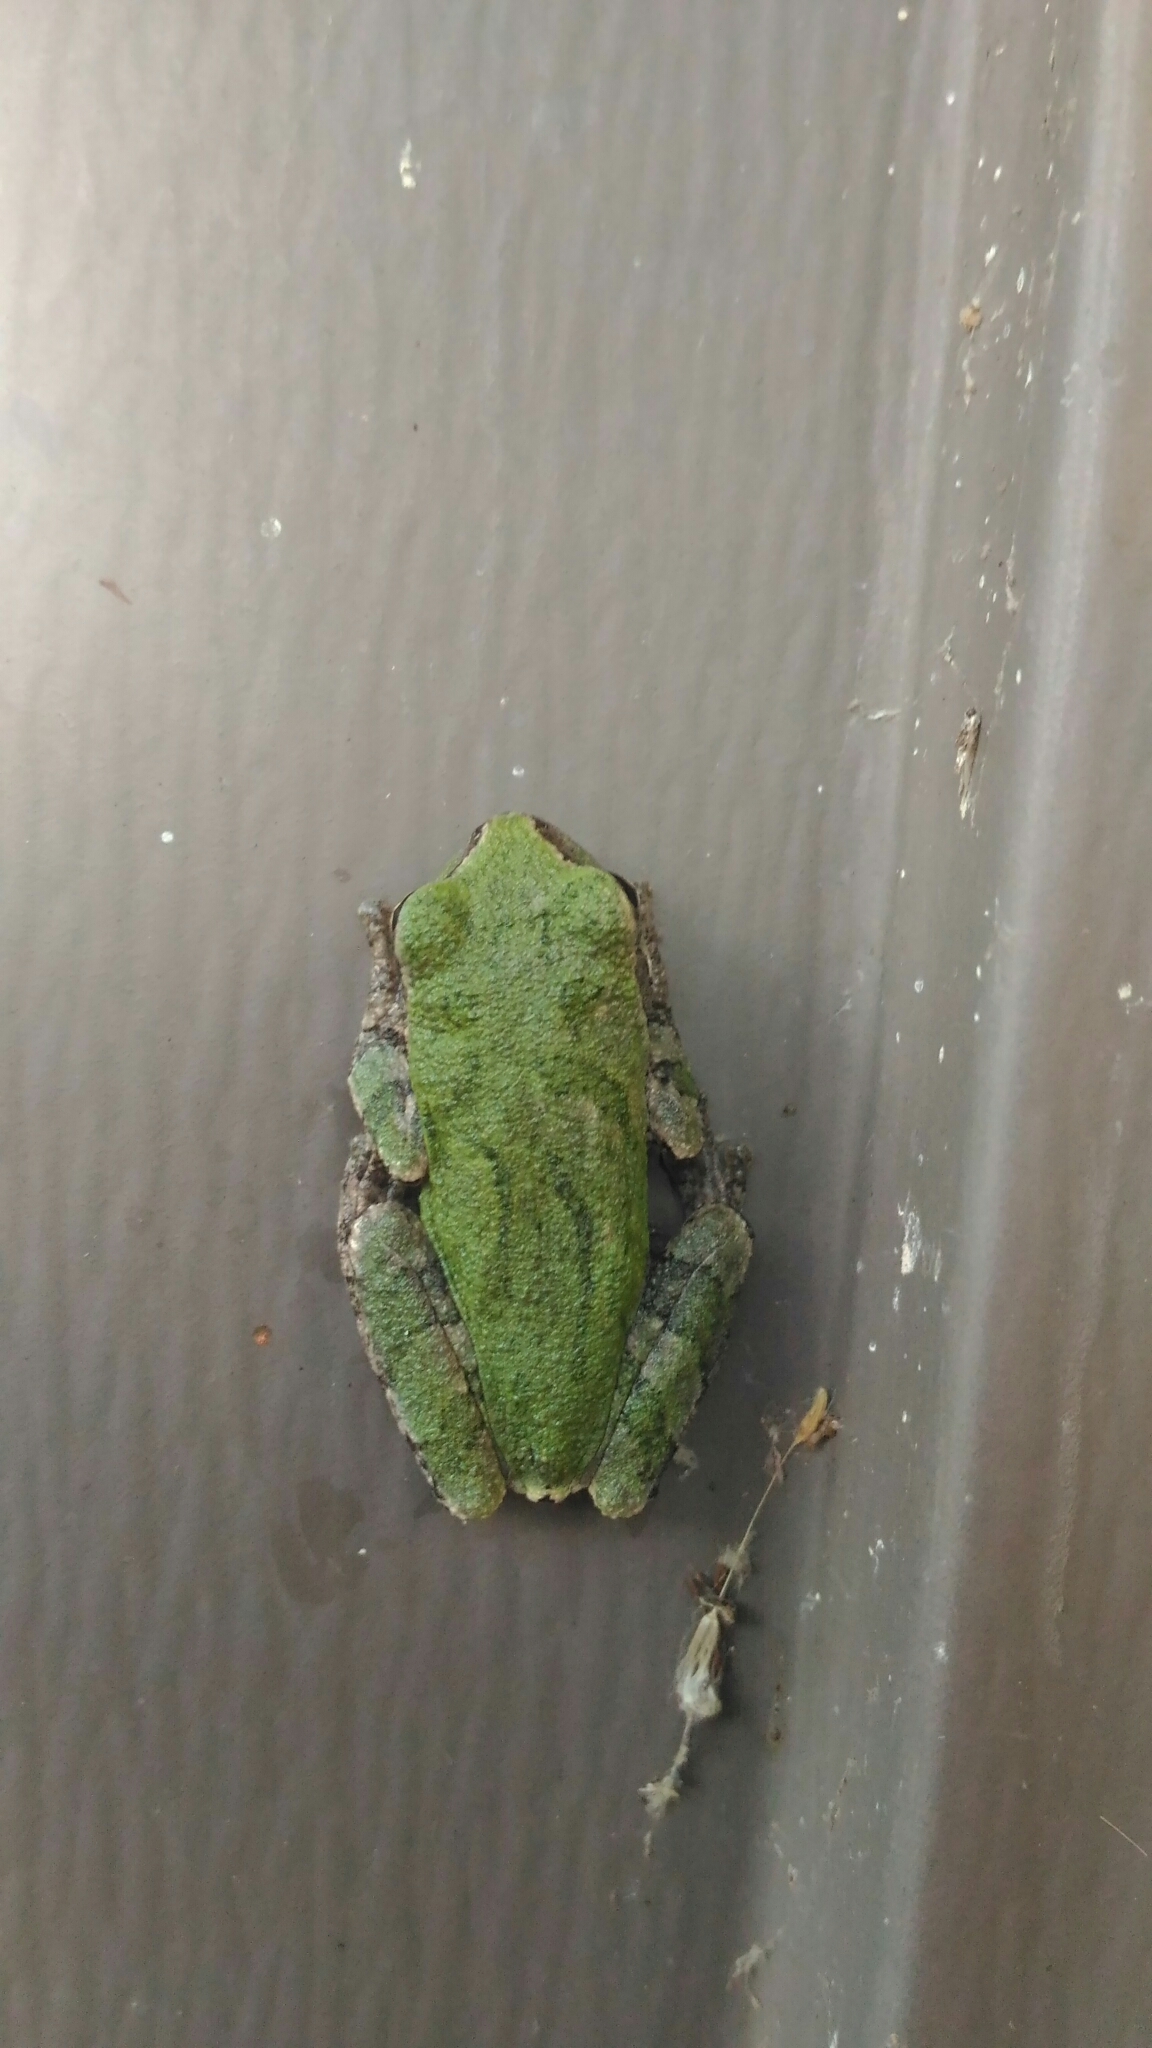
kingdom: Animalia
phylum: Chordata
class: Amphibia
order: Anura
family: Hylidae
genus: Hyla
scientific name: Hyla
